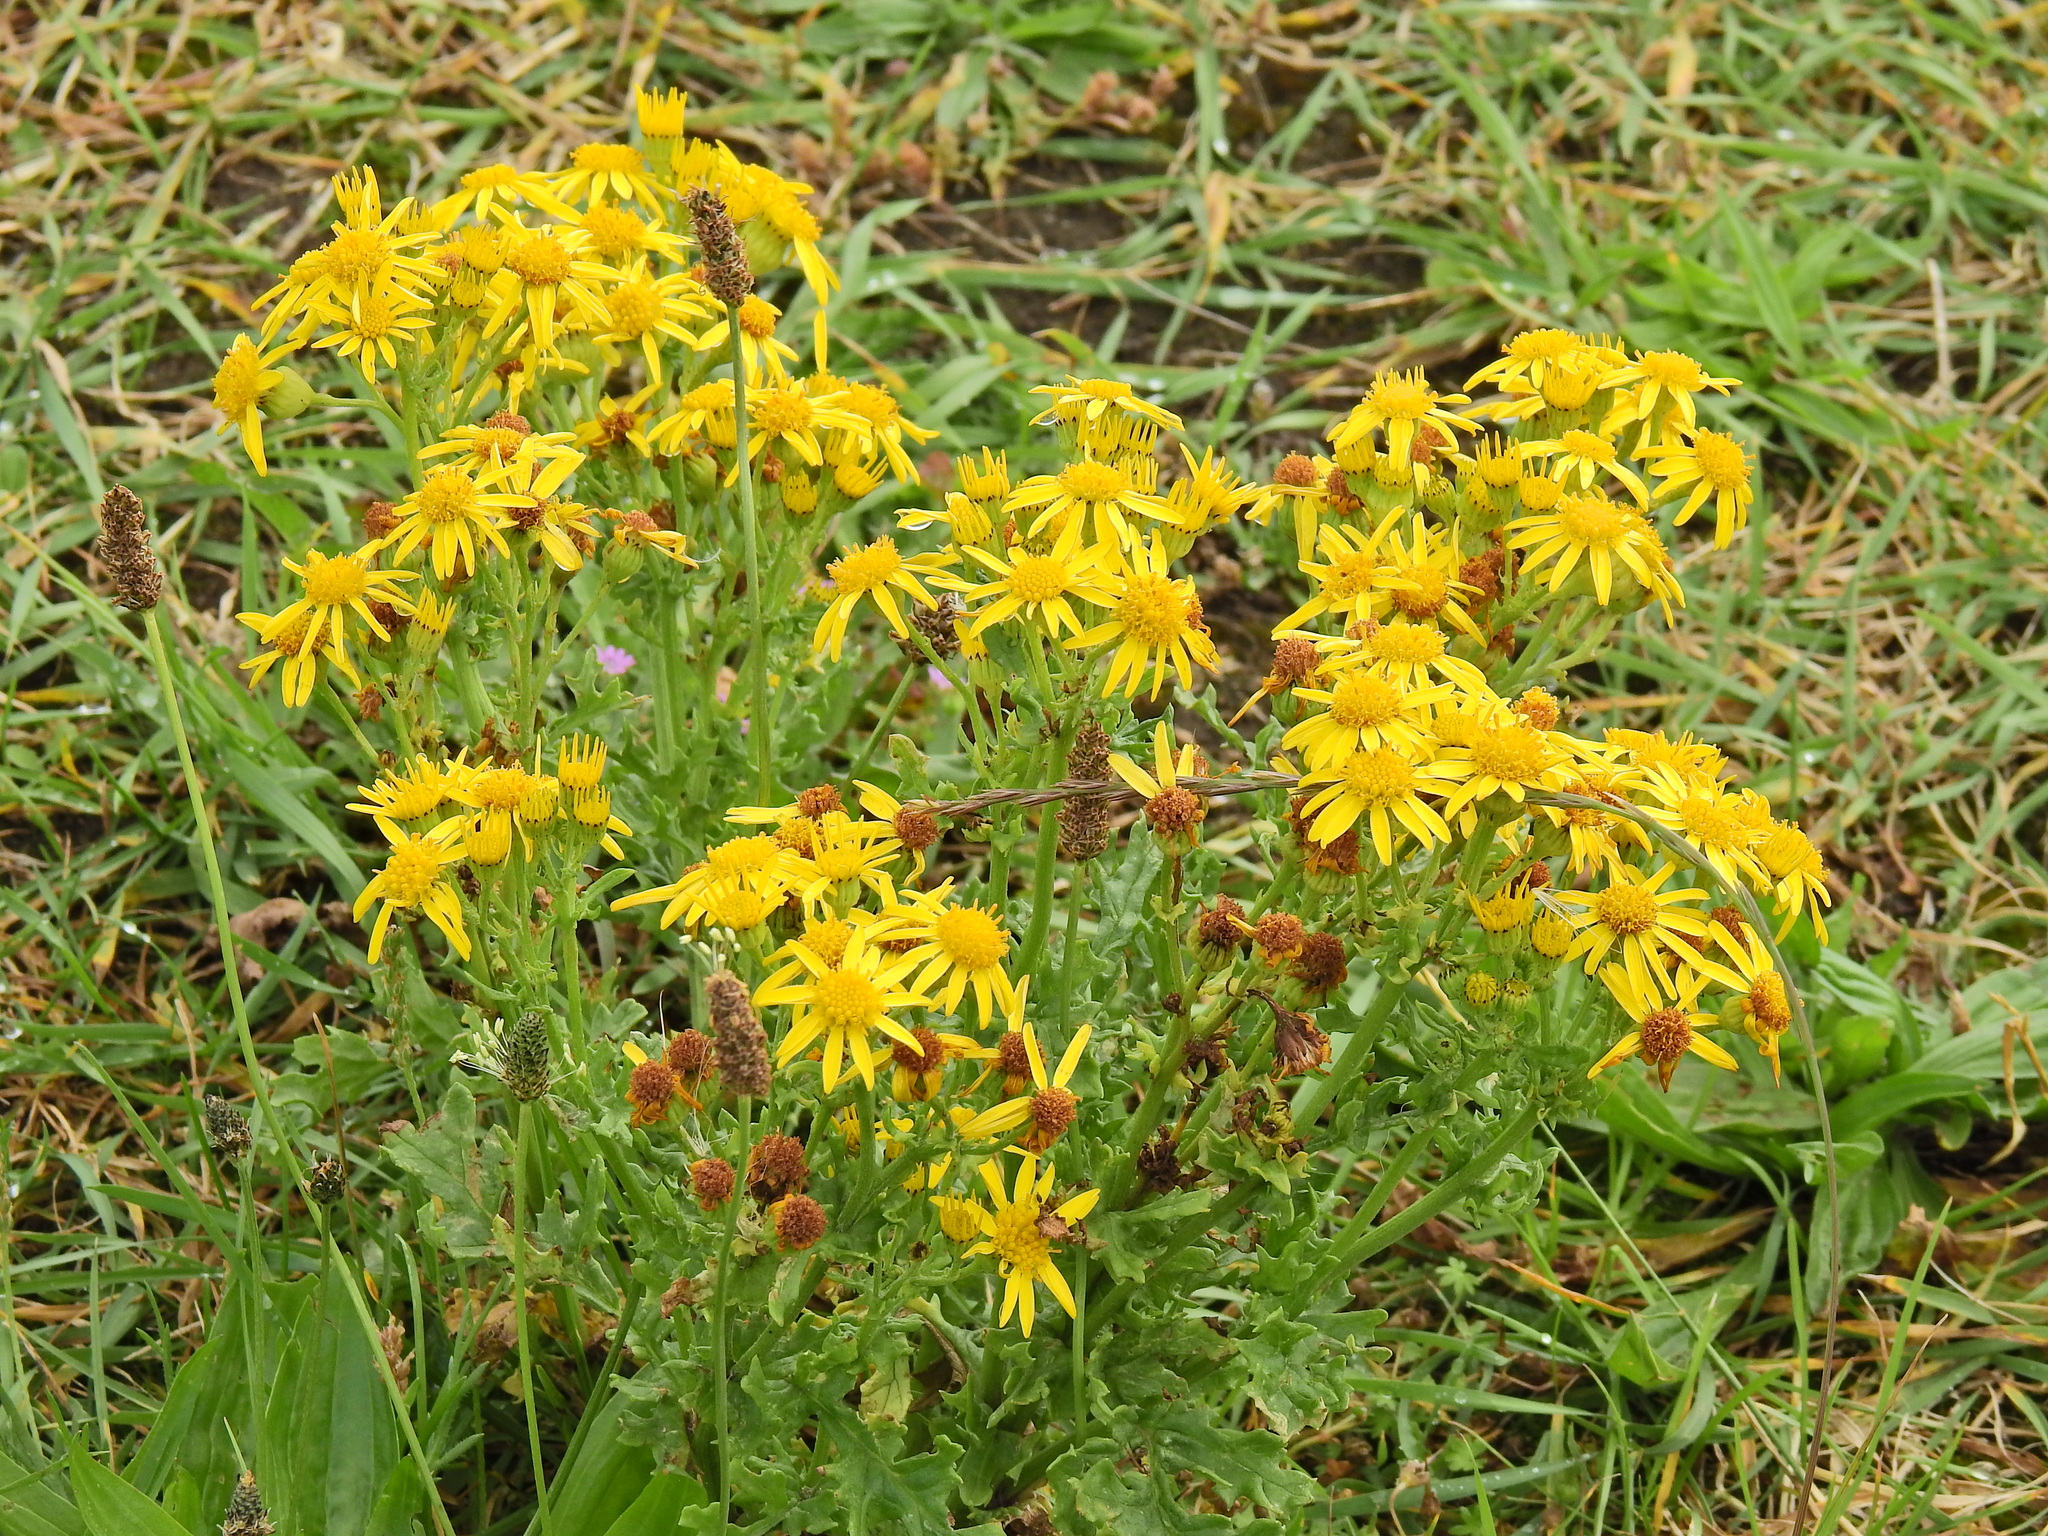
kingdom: Plantae
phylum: Tracheophyta
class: Magnoliopsida
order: Asterales
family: Asteraceae
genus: Jacobaea
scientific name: Jacobaea vulgaris
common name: Stinking willie
